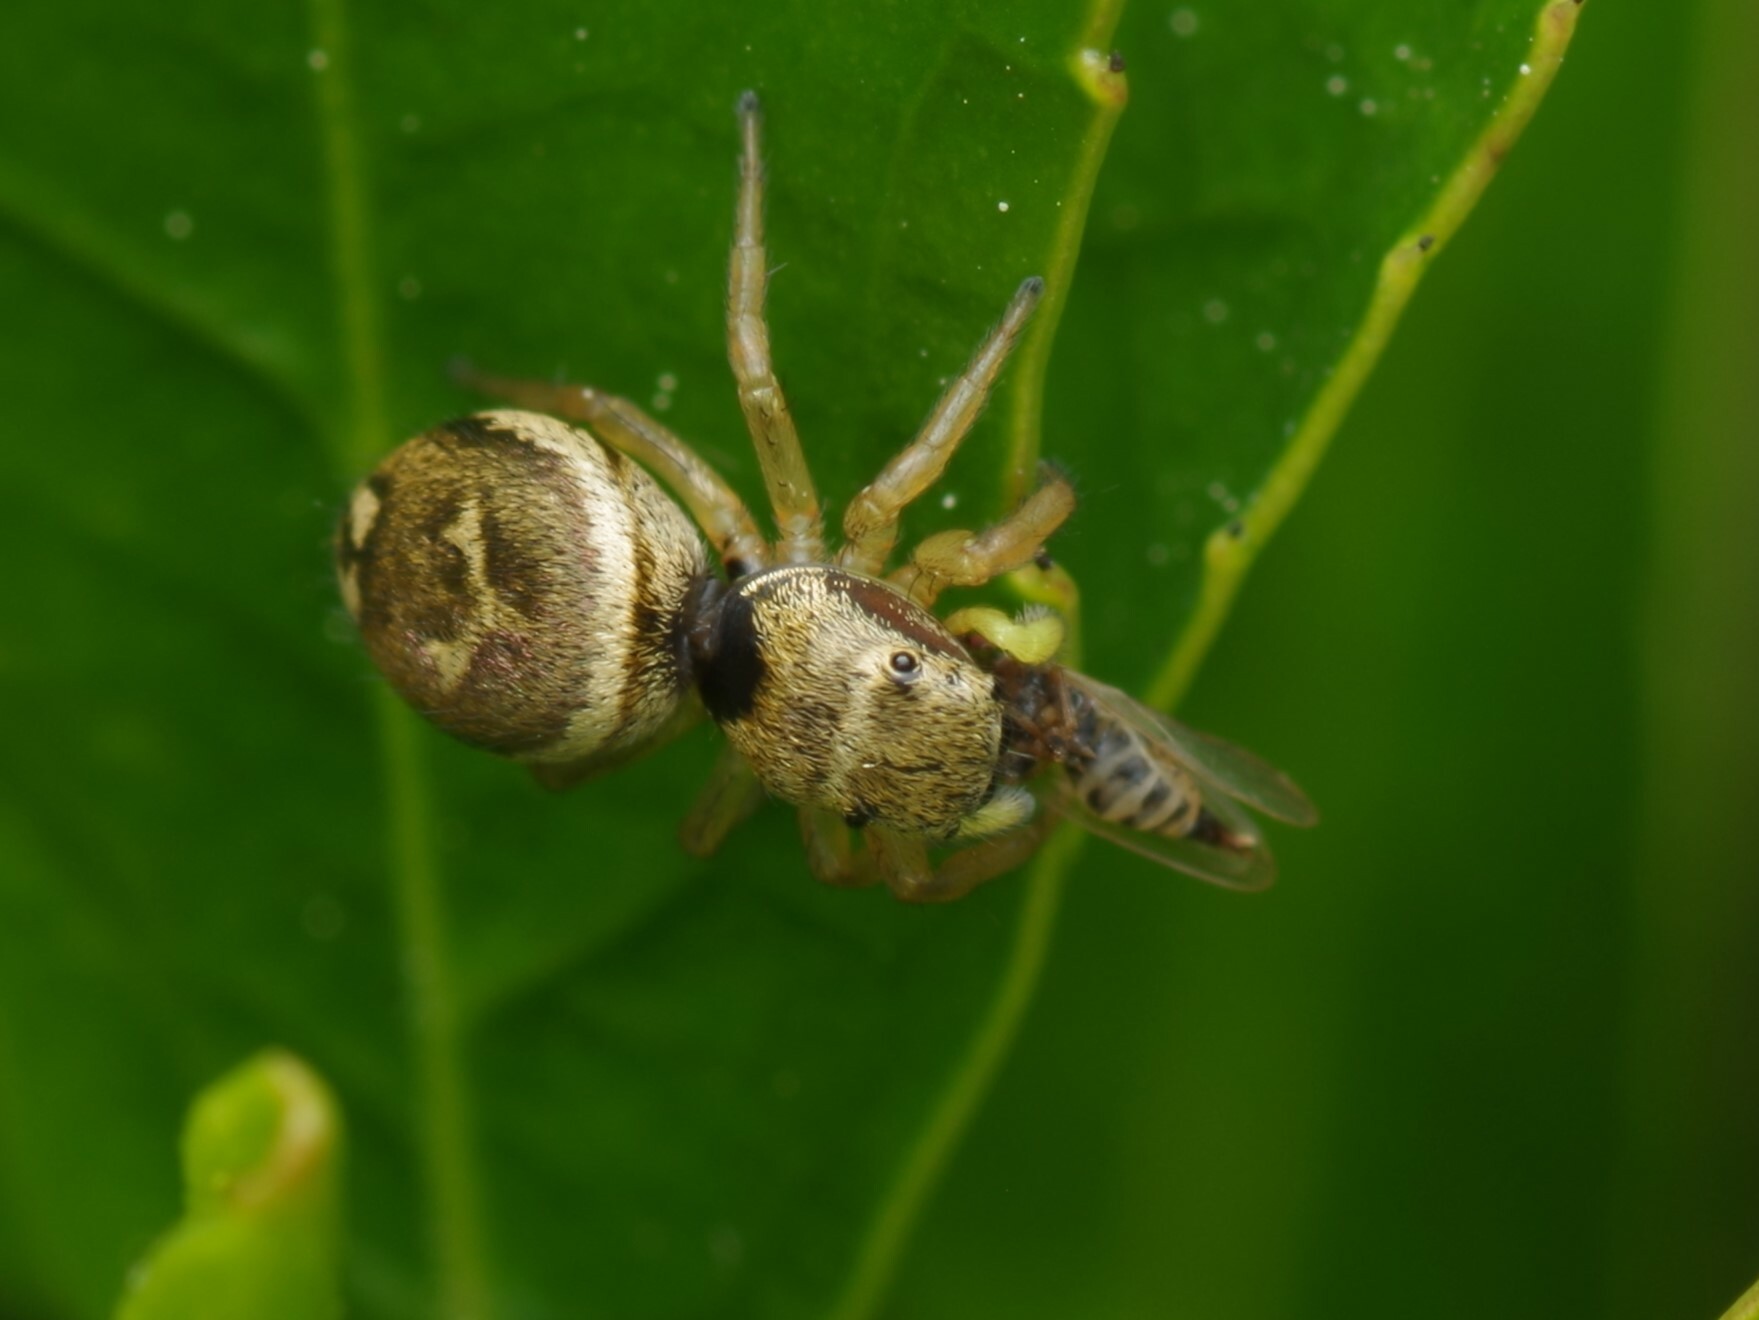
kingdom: Animalia
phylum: Arthropoda
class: Arachnida
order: Araneae
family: Salticidae
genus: Heliophanus
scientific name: Heliophanus tribulosus
